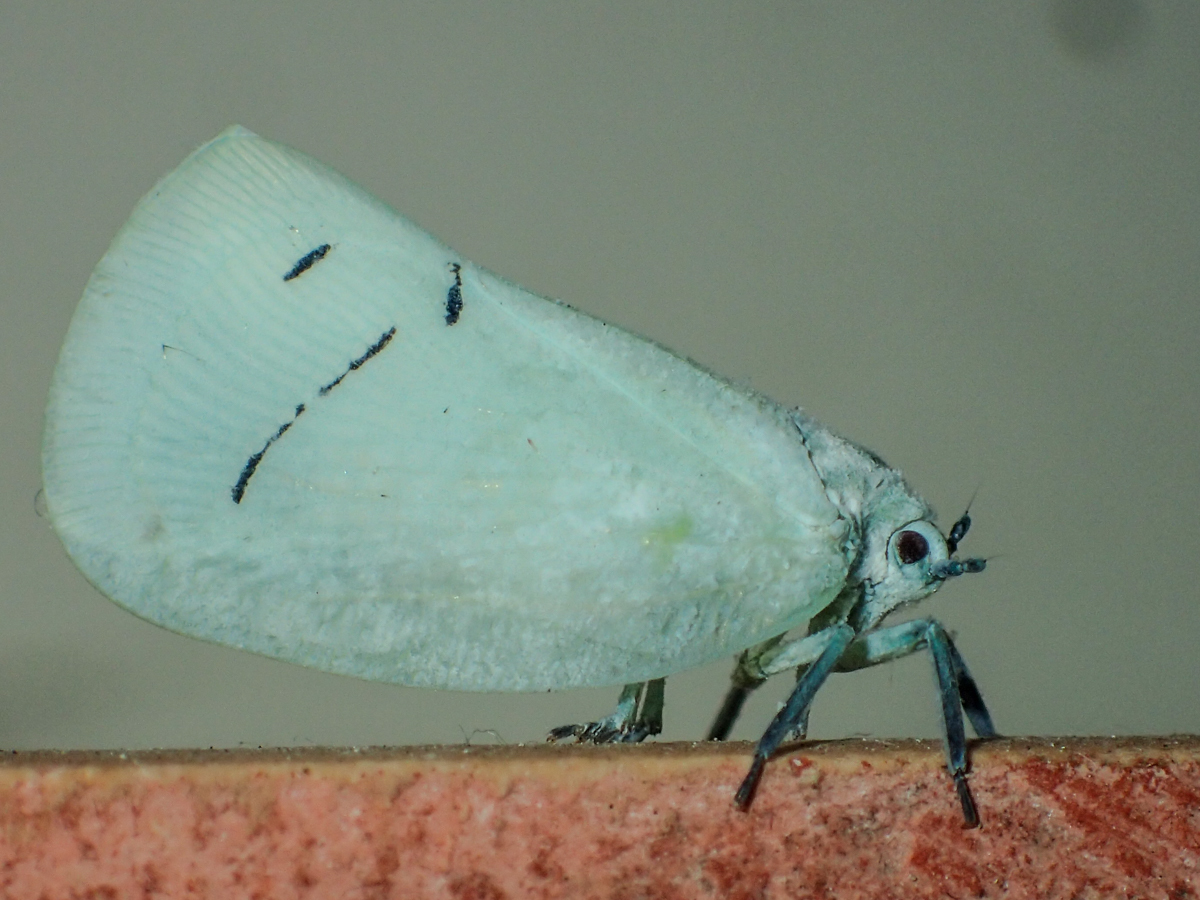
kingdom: Animalia
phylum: Arthropoda
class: Insecta
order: Hemiptera
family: Flatidae
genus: Cerynia
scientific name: Cerynia maria
